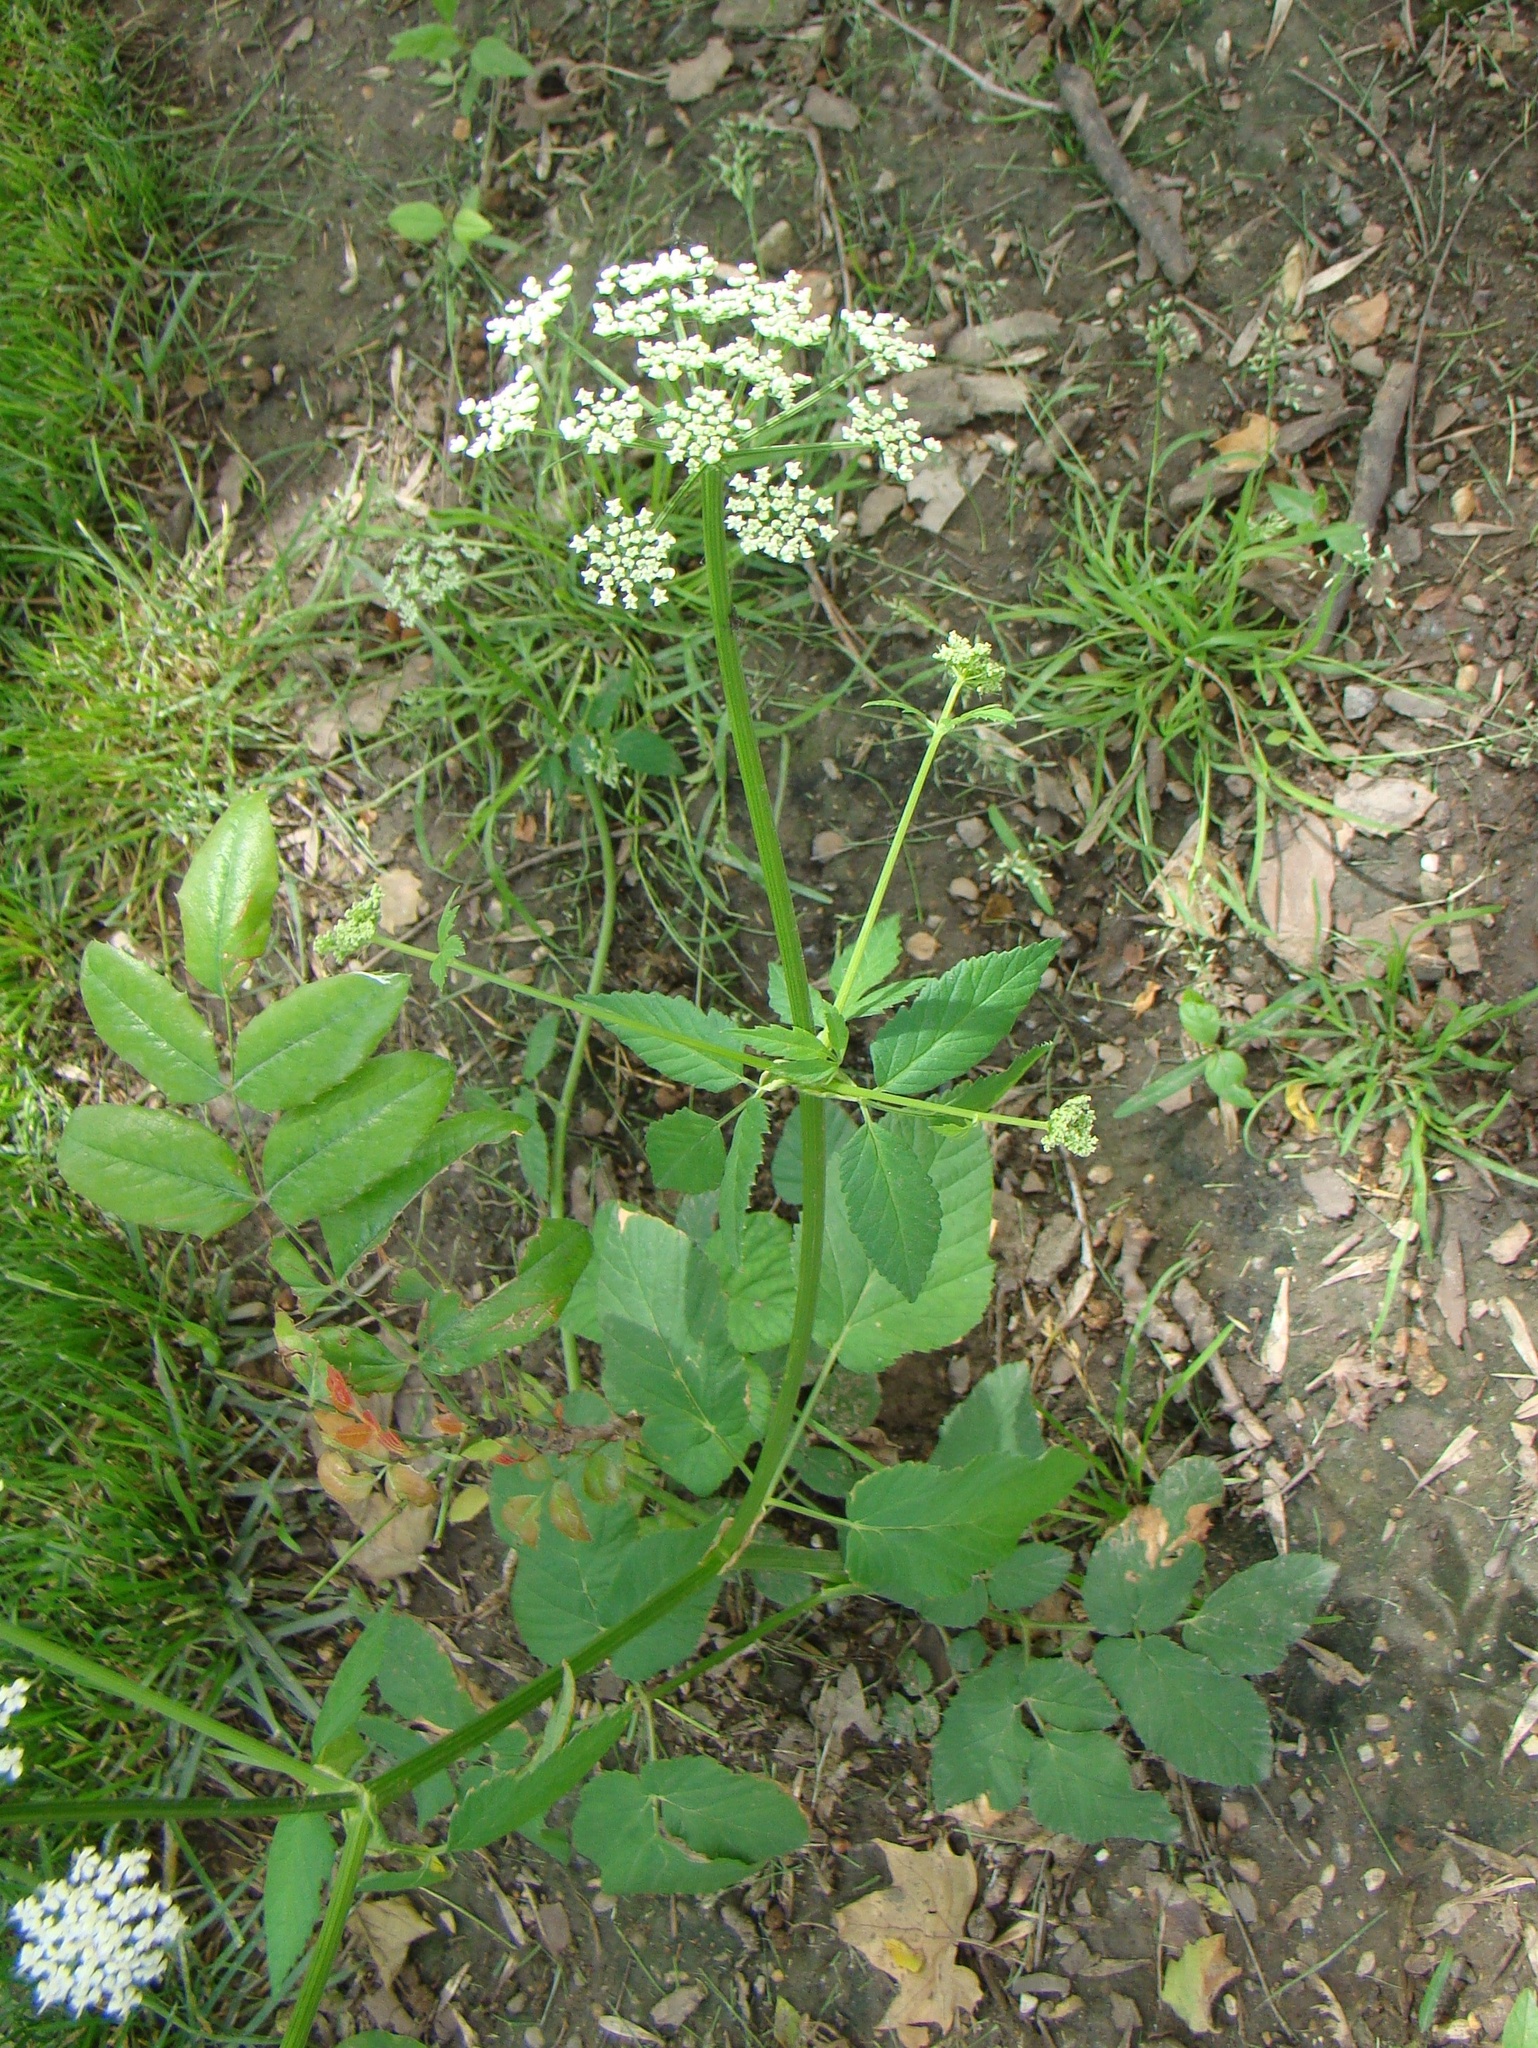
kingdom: Plantae
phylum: Tracheophyta
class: Magnoliopsida
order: Apiales
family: Apiaceae
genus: Aegopodium
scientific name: Aegopodium podagraria
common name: Ground-elder
